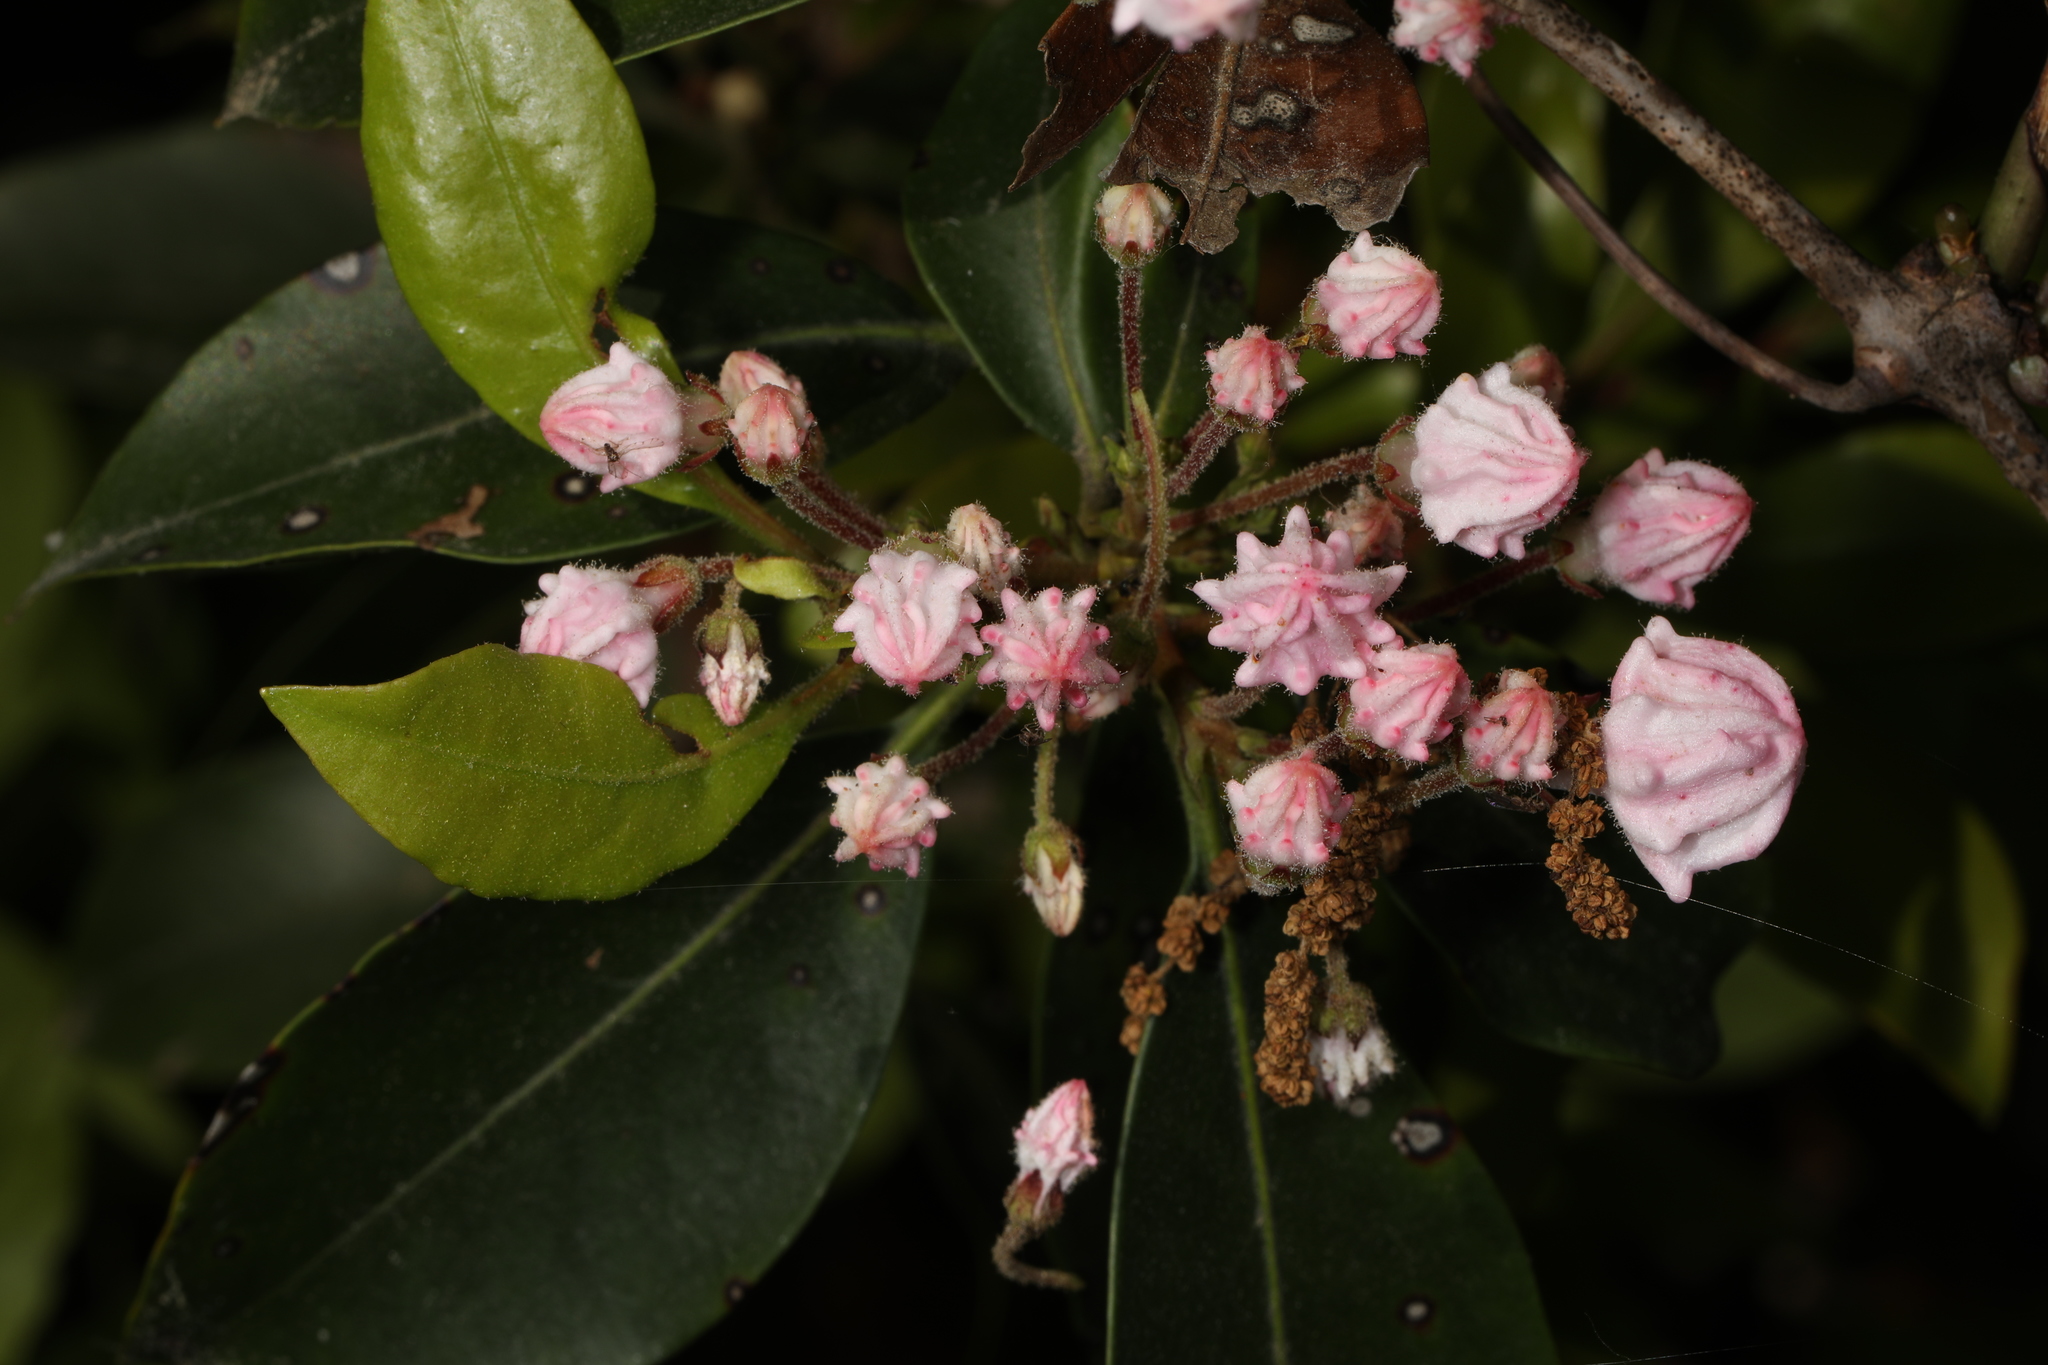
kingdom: Plantae
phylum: Tracheophyta
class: Magnoliopsida
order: Ericales
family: Ericaceae
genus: Kalmia
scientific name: Kalmia latifolia
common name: Mountain-laurel
